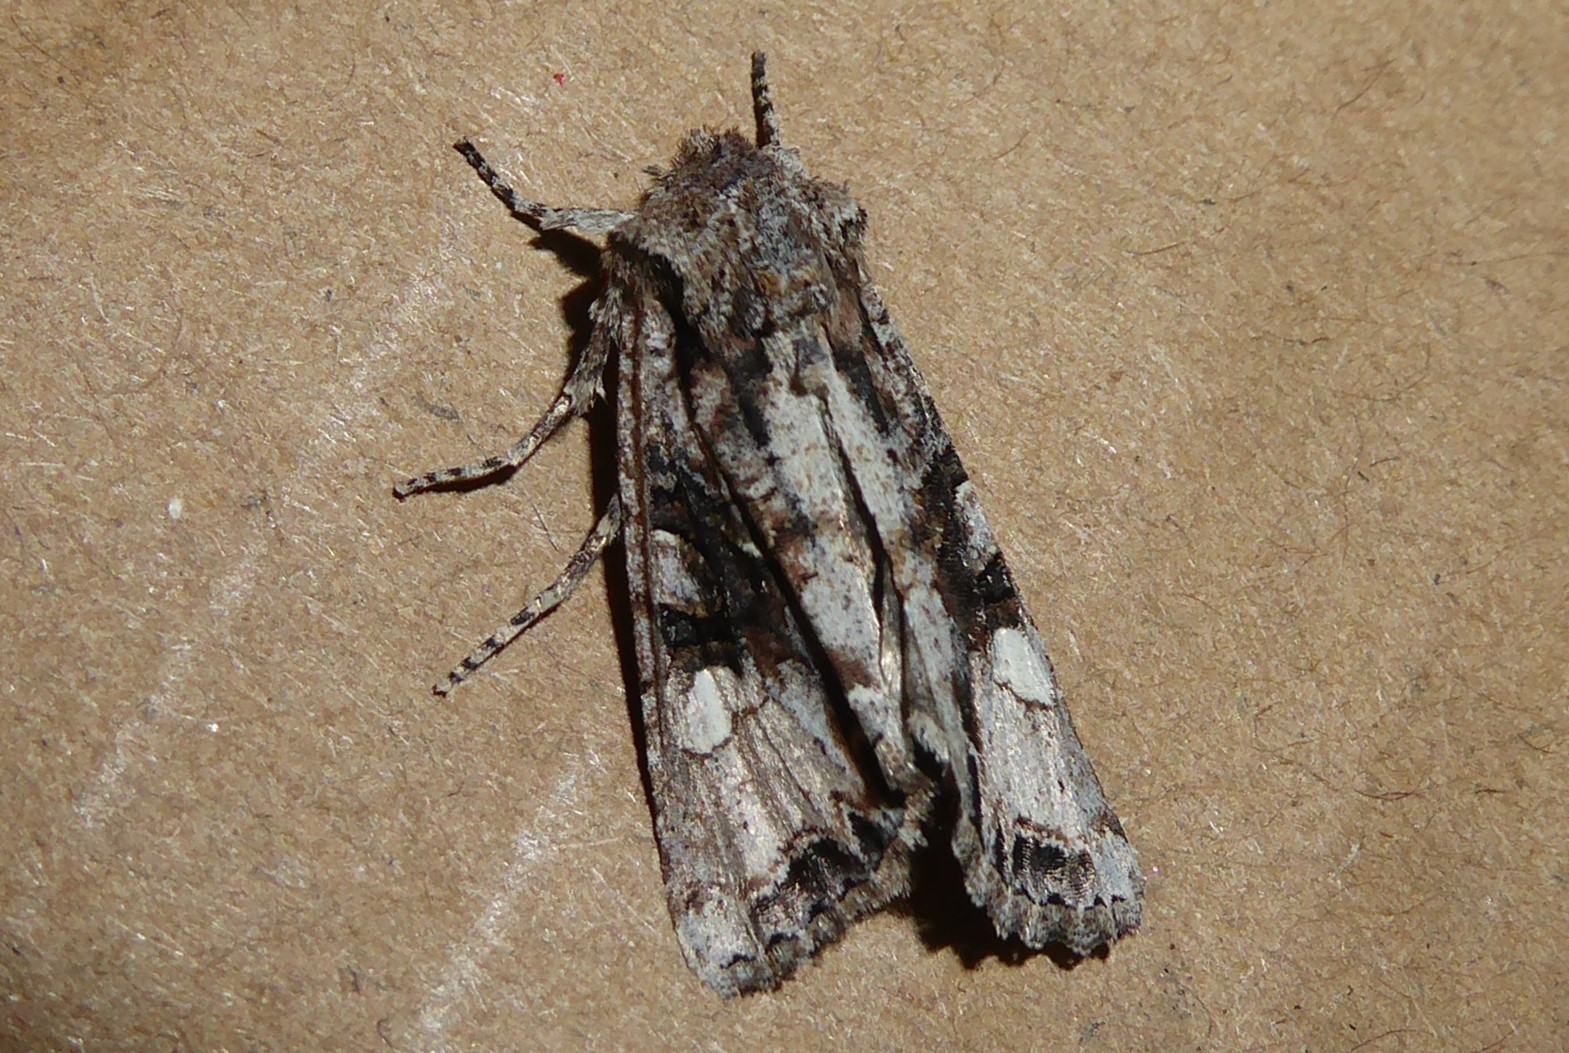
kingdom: Animalia
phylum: Arthropoda
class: Insecta
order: Lepidoptera
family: Noctuidae
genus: Ichneutica
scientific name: Ichneutica
